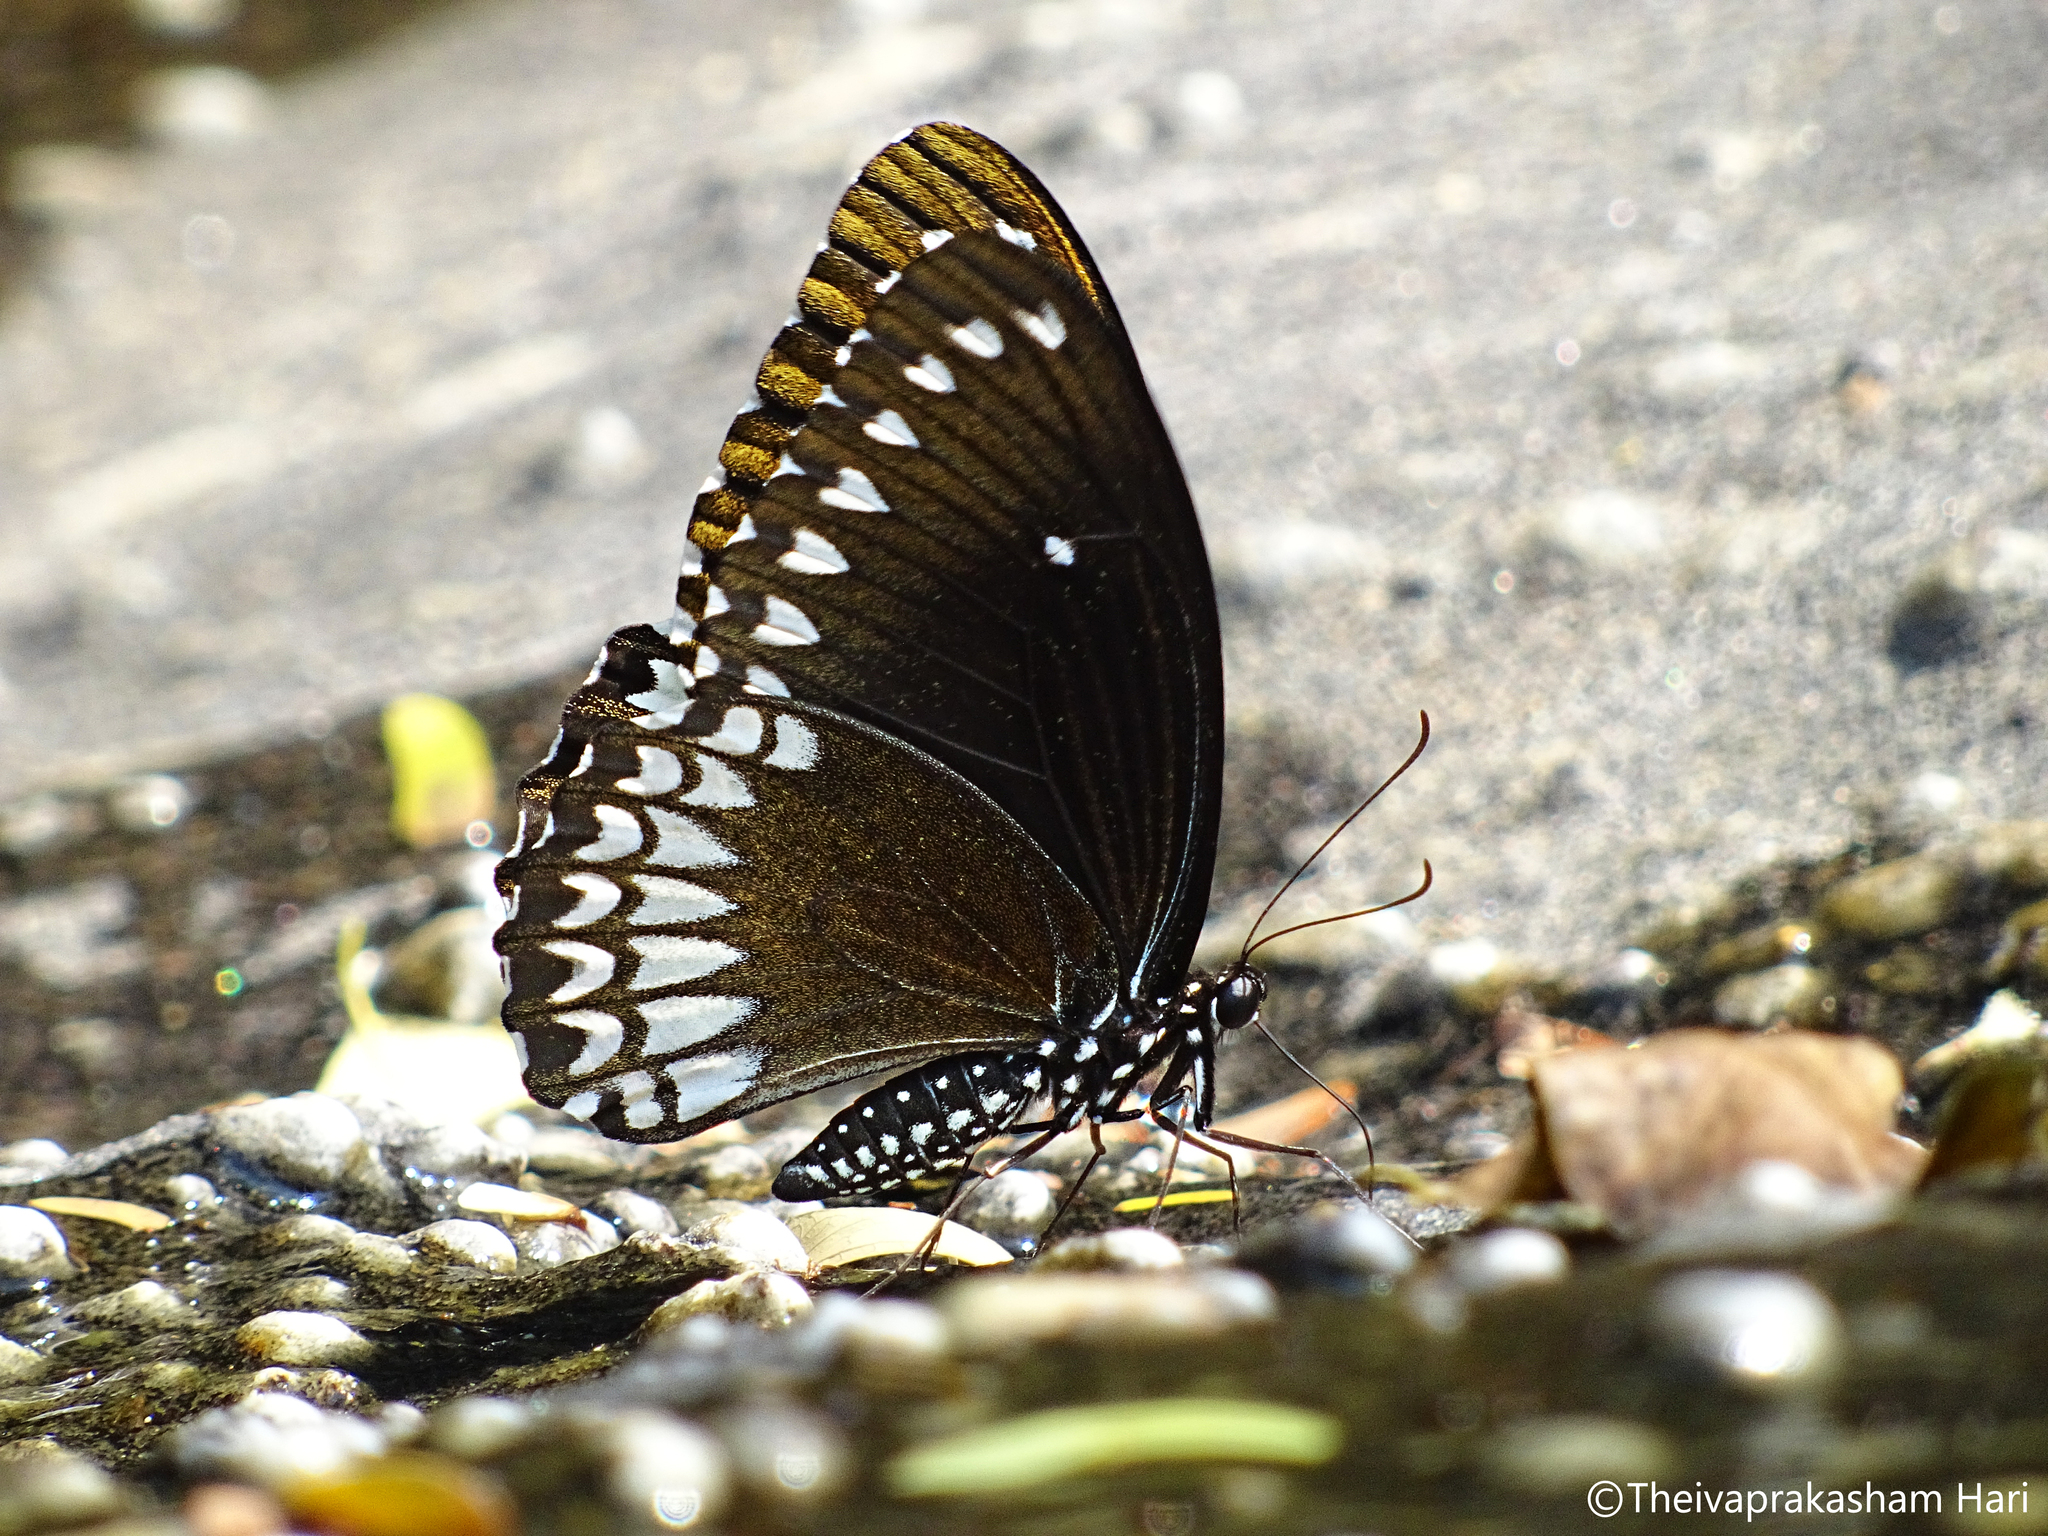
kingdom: Animalia
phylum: Arthropoda
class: Insecta
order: Lepidoptera
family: Papilionidae
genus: Papilio
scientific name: Papilio dravidarum
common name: Malabar raven
